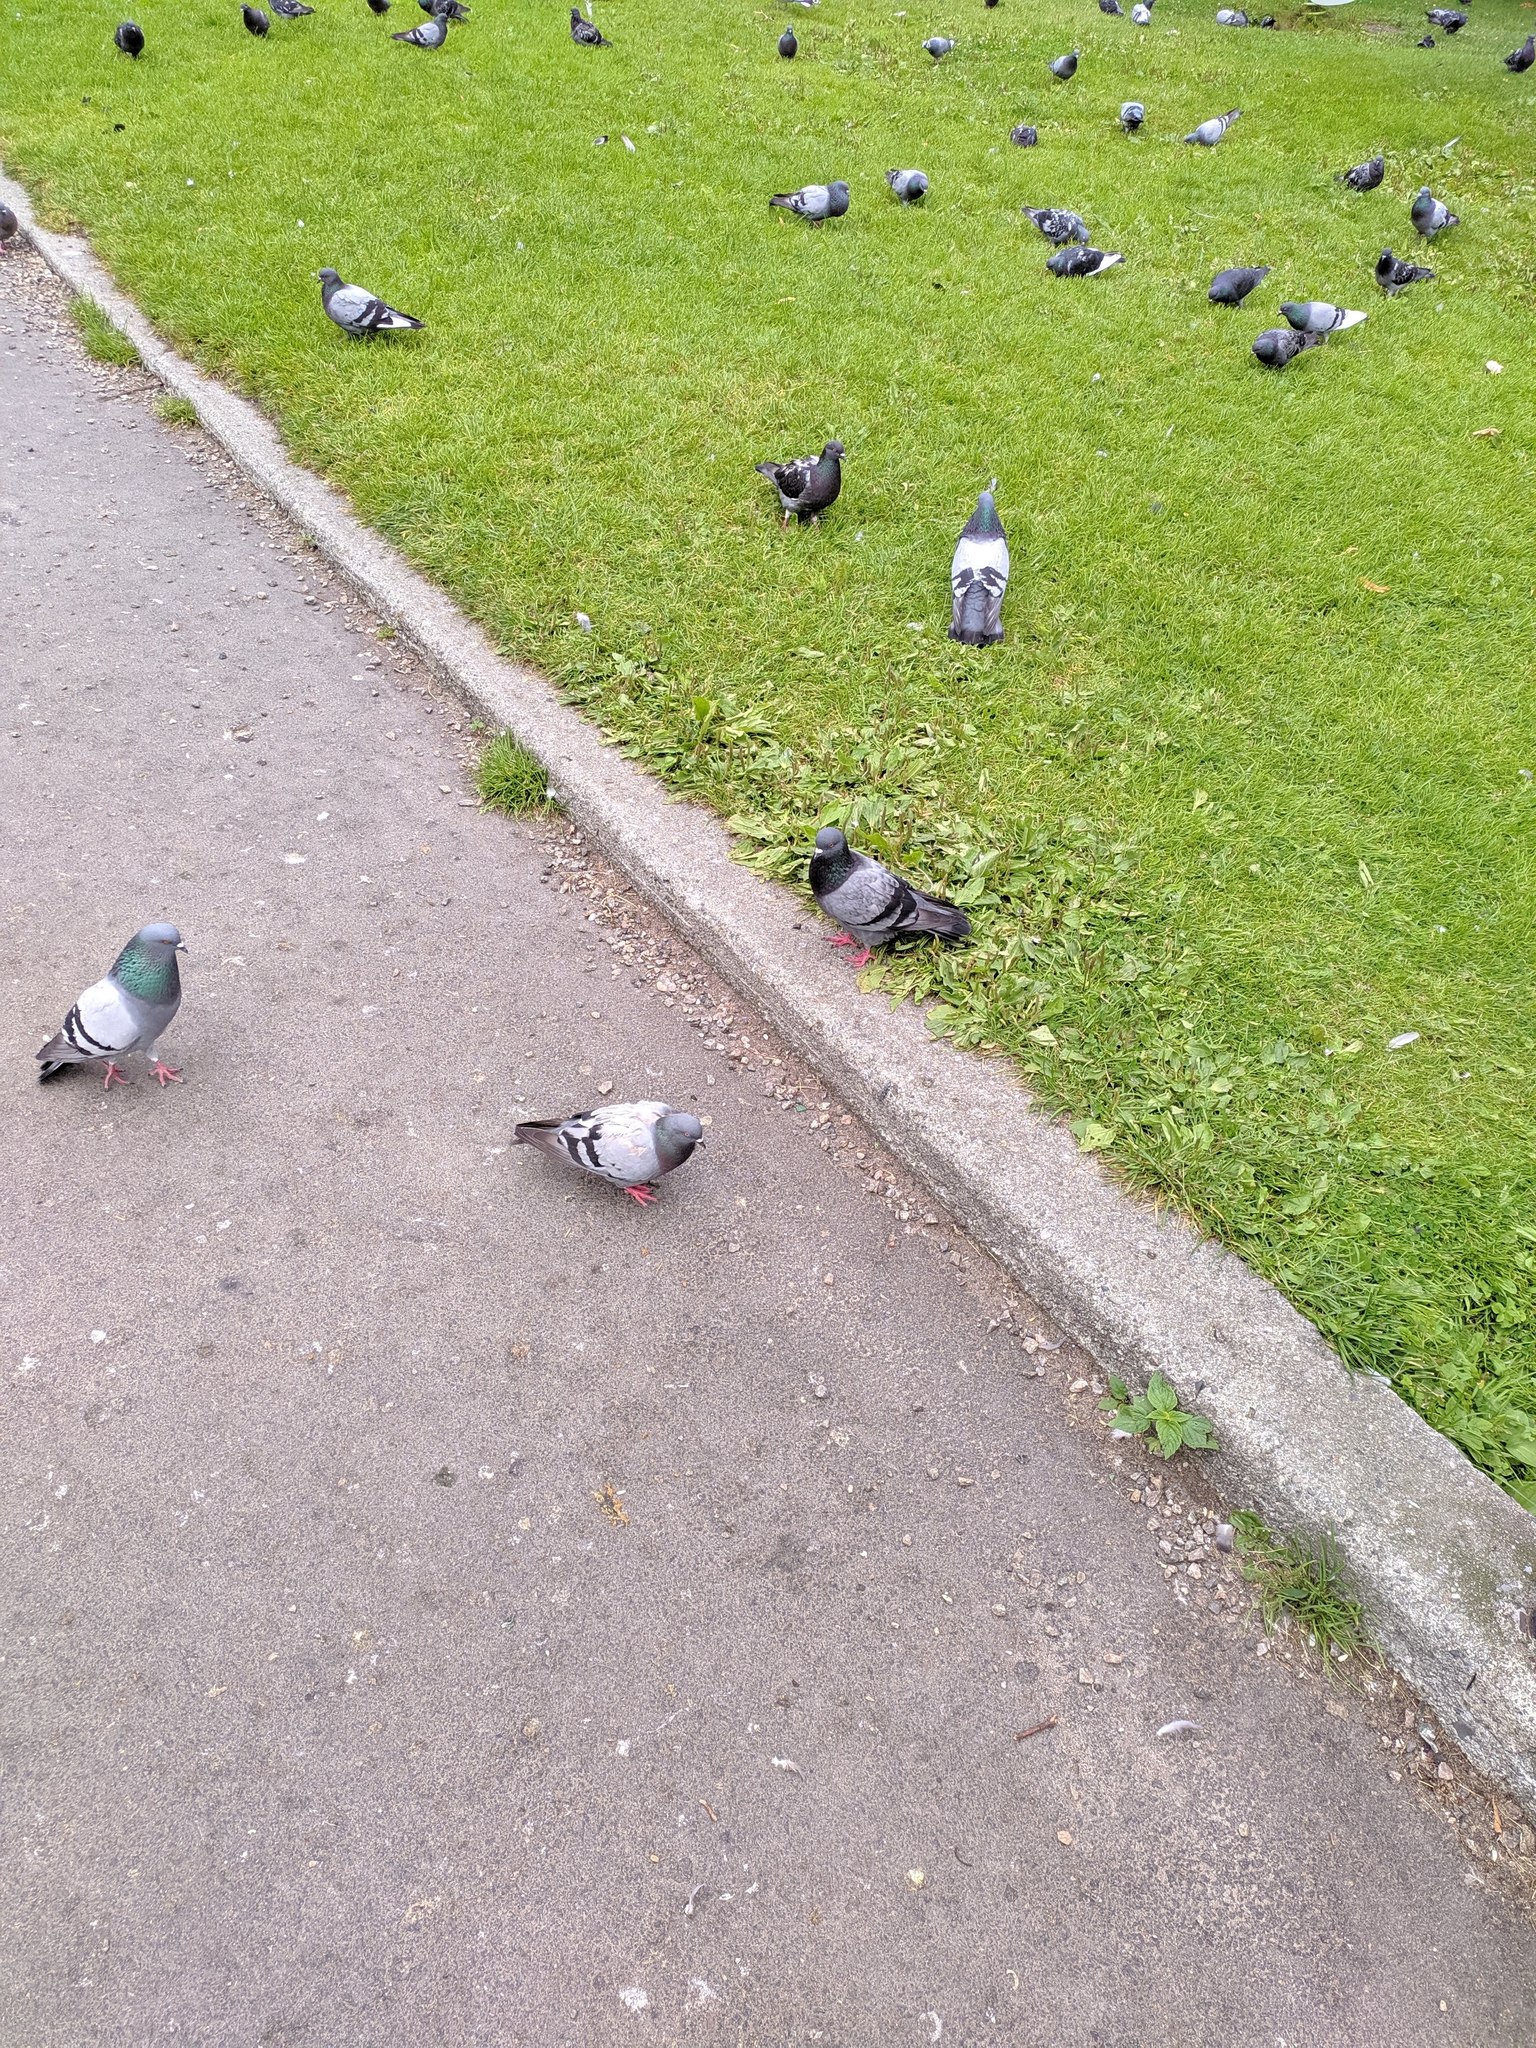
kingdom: Animalia
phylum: Chordata
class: Aves
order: Columbiformes
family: Columbidae
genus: Columba
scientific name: Columba livia
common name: Rock pigeon
